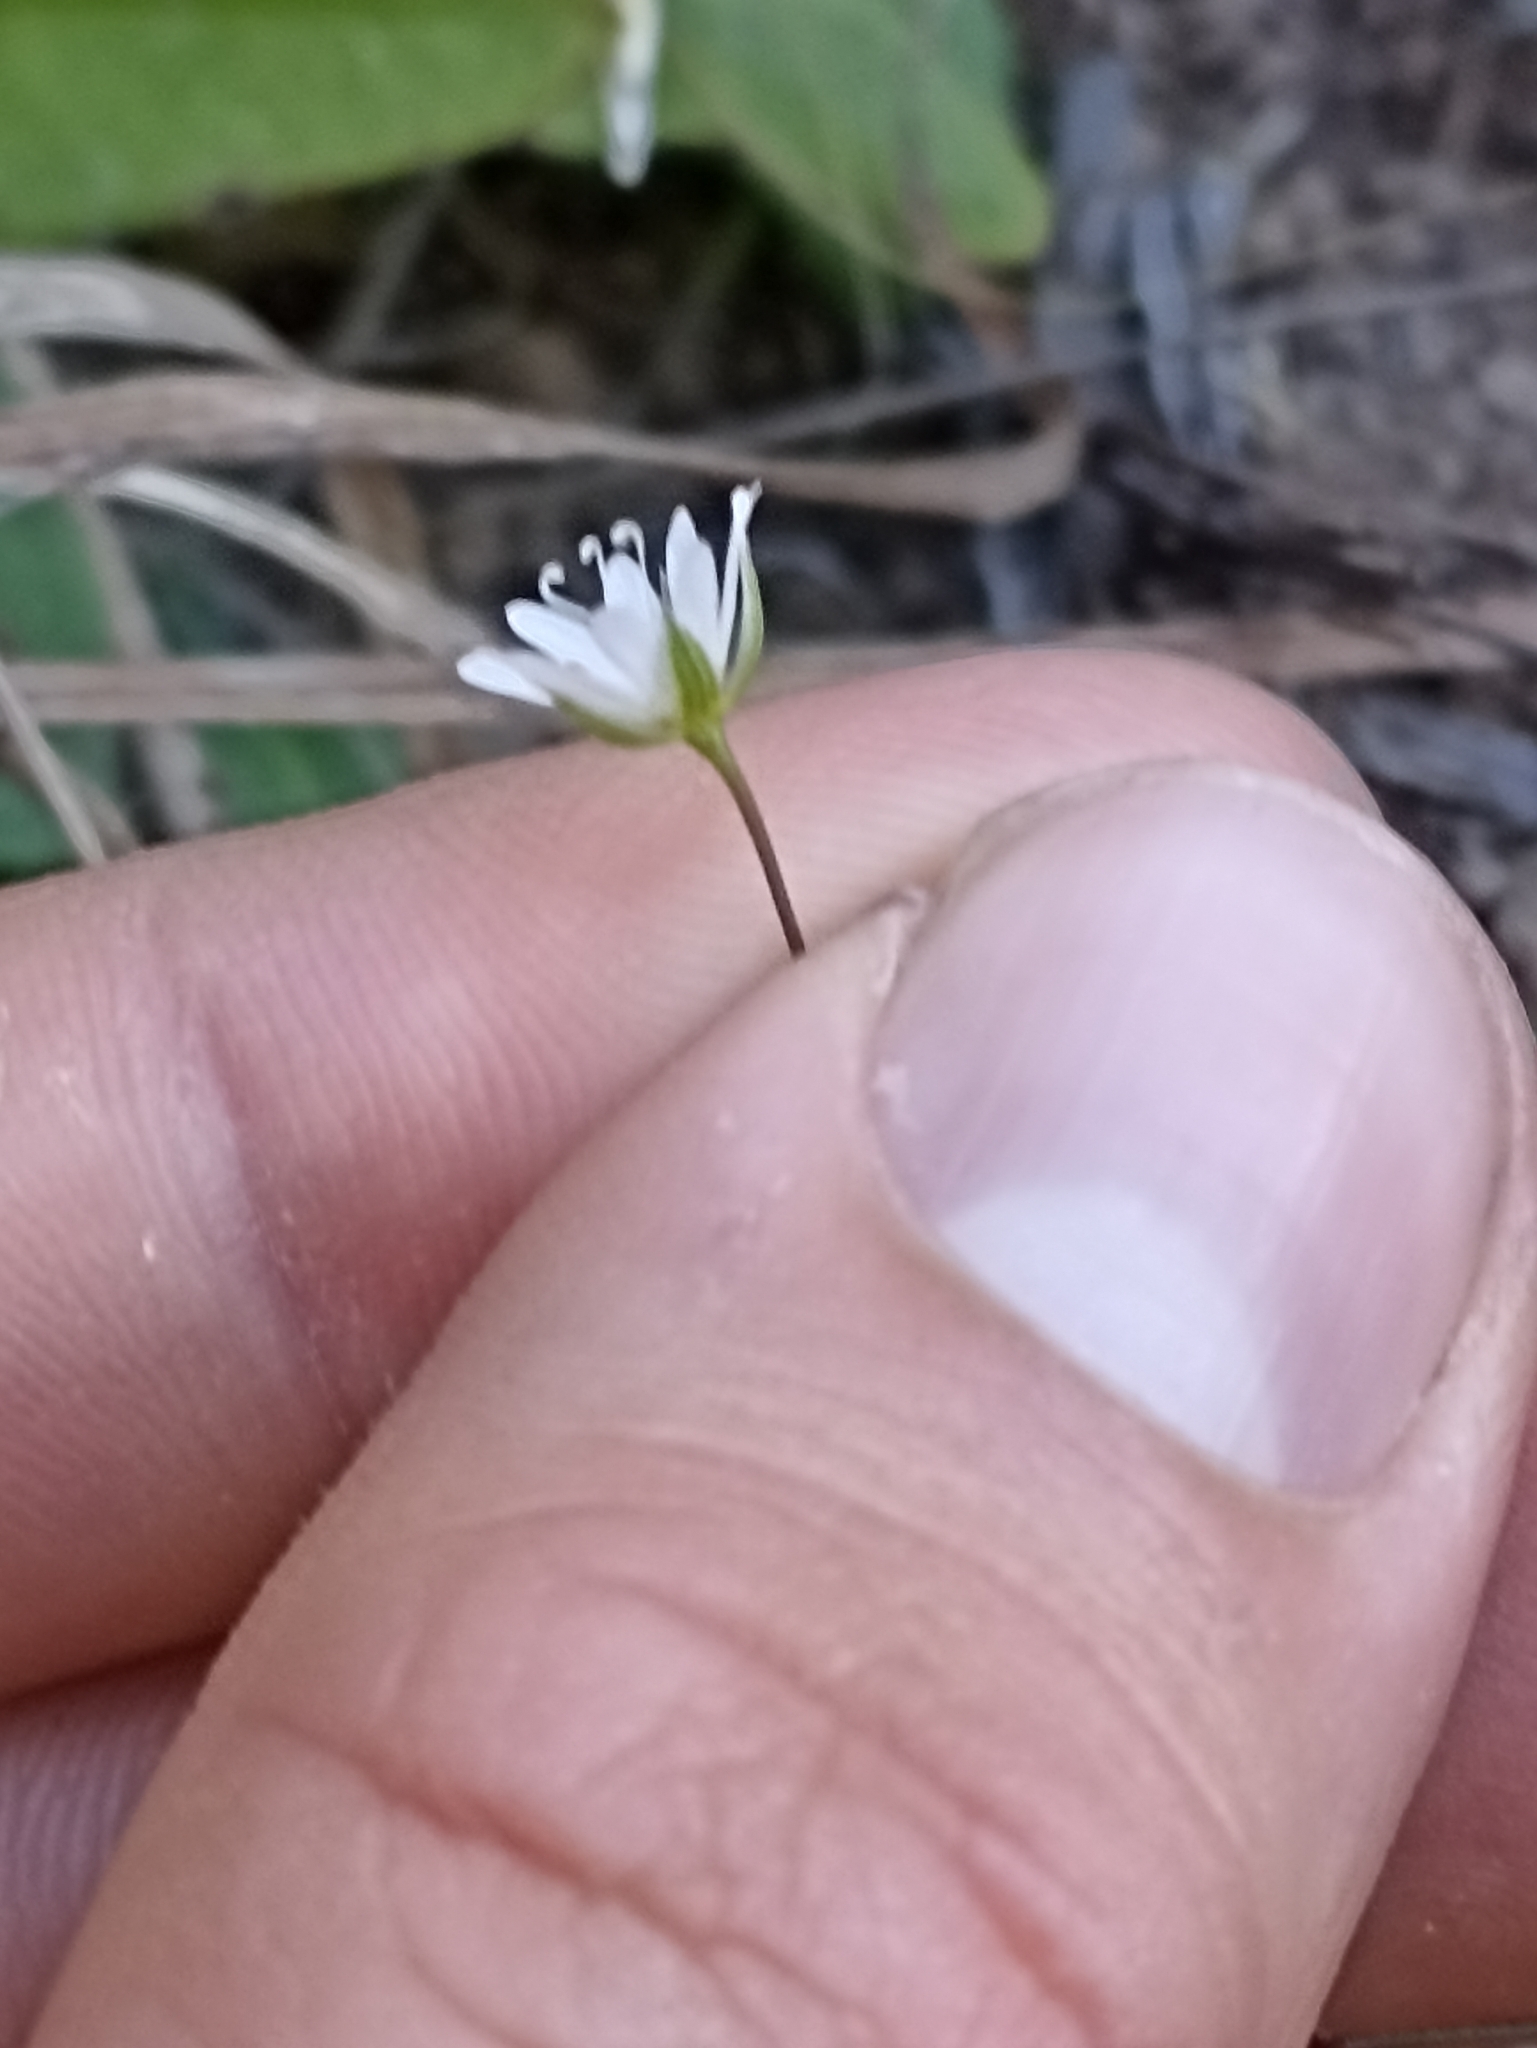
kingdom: Plantae
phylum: Tracheophyta
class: Magnoliopsida
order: Caryophyllales
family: Caryophyllaceae
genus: Stellaria
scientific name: Stellaria graminea
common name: Grass-like starwort
